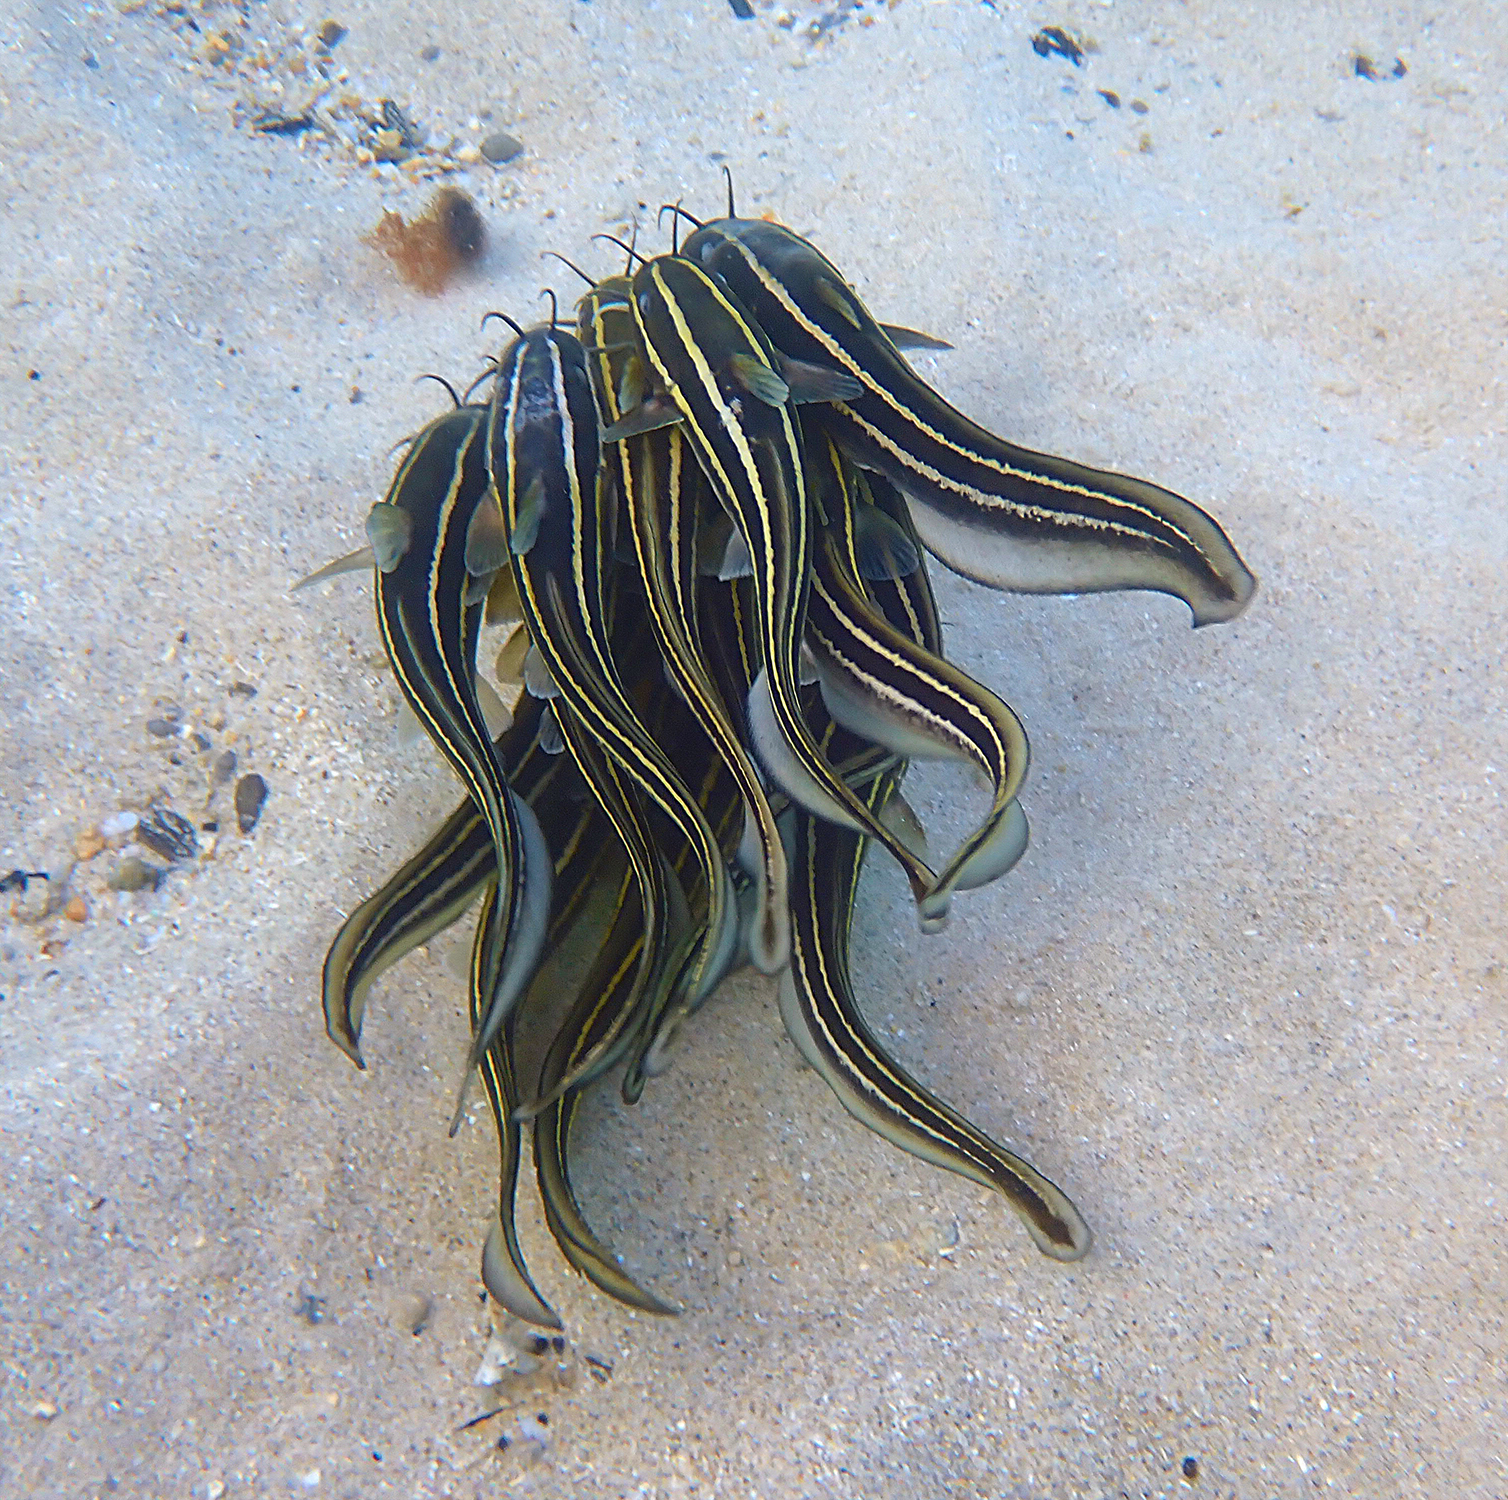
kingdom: Animalia
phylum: Chordata
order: Siluriformes
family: Plotosidae
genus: Plotosus
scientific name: Plotosus lineatus
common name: Striped eel catfish
